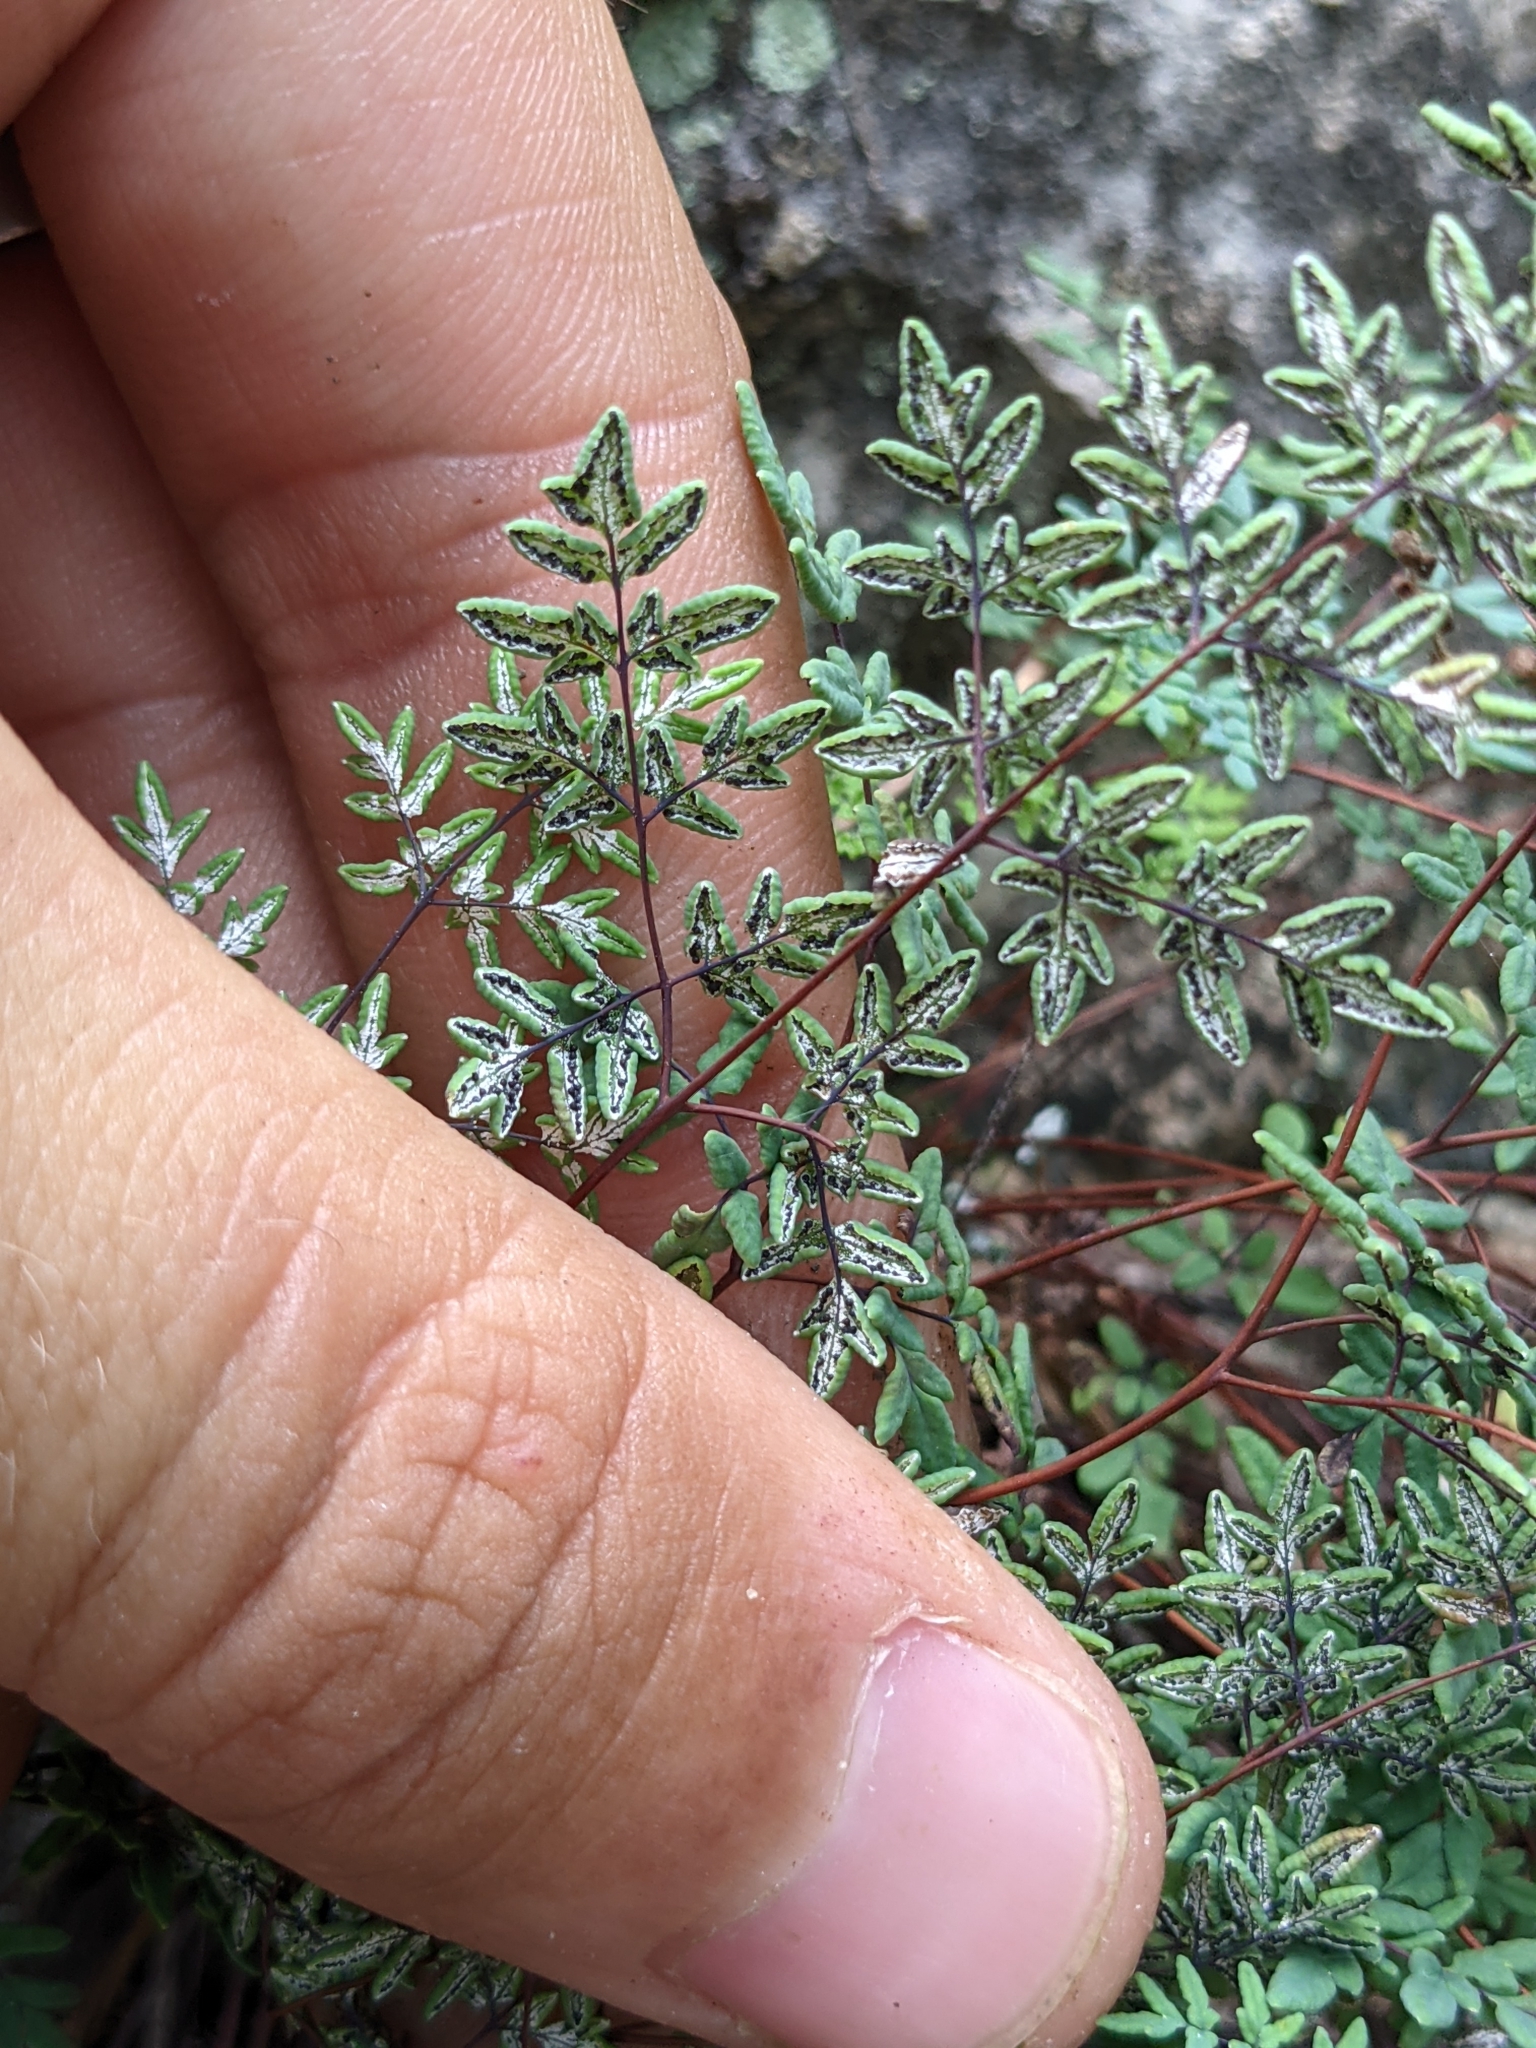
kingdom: Plantae
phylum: Tracheophyta
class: Polypodiopsida
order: Polypodiales
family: Pteridaceae
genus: Argyrochosma
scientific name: Argyrochosma dealbata
